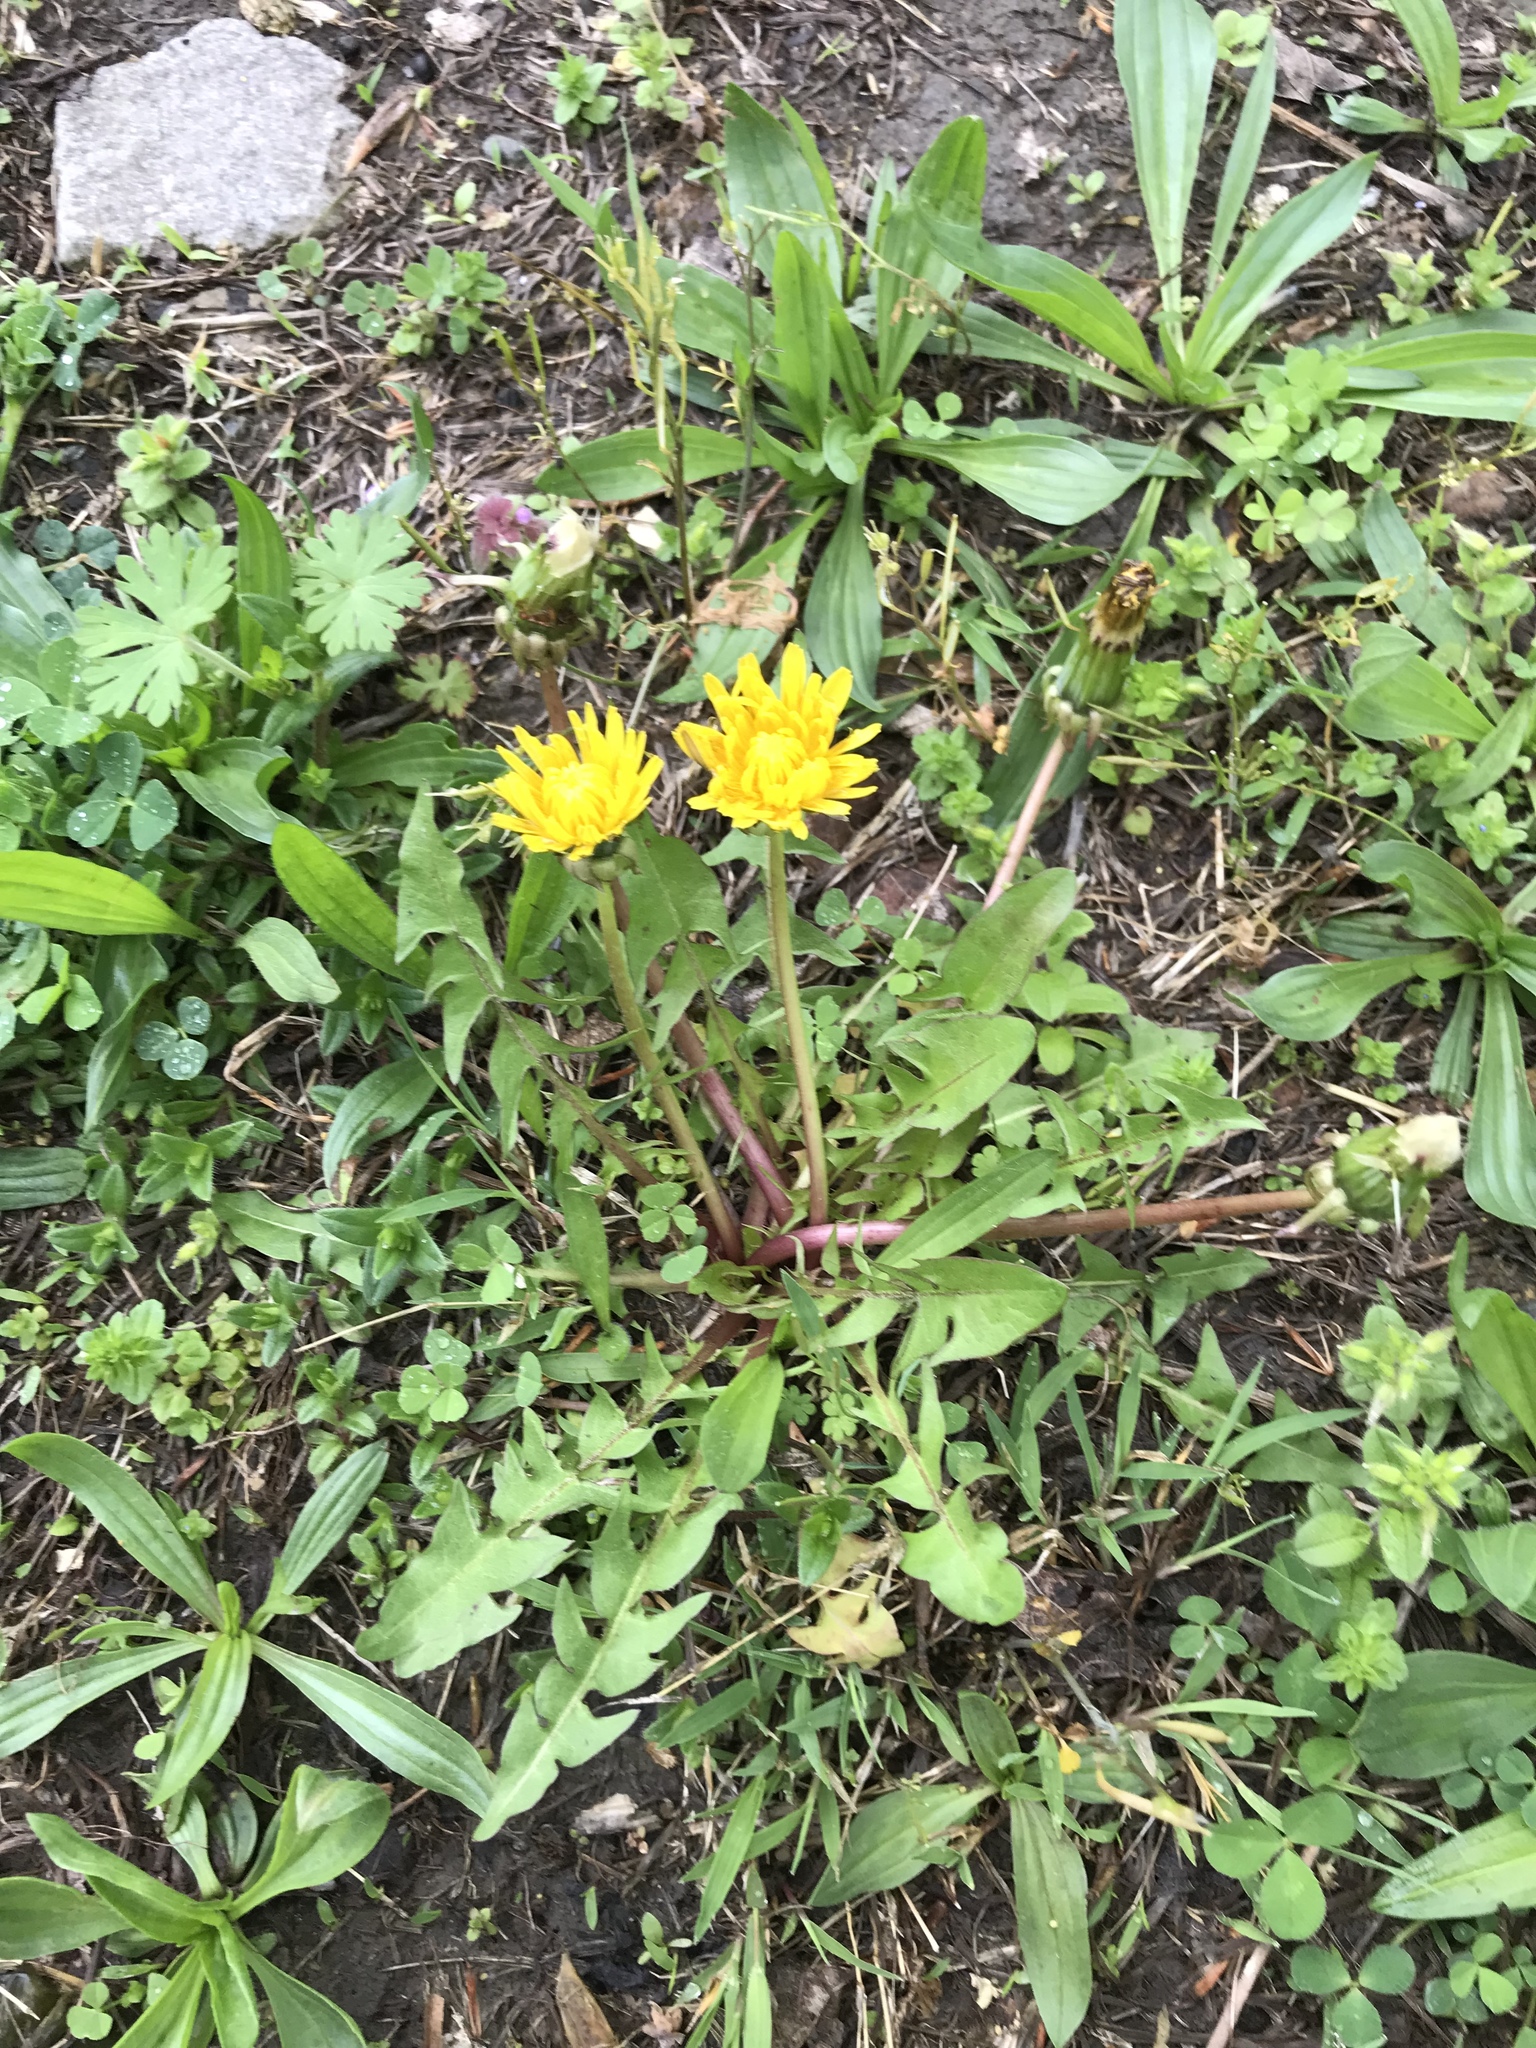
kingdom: Plantae
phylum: Tracheophyta
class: Magnoliopsida
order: Asterales
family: Asteraceae
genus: Taraxacum
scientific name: Taraxacum officinale
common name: Common dandelion
